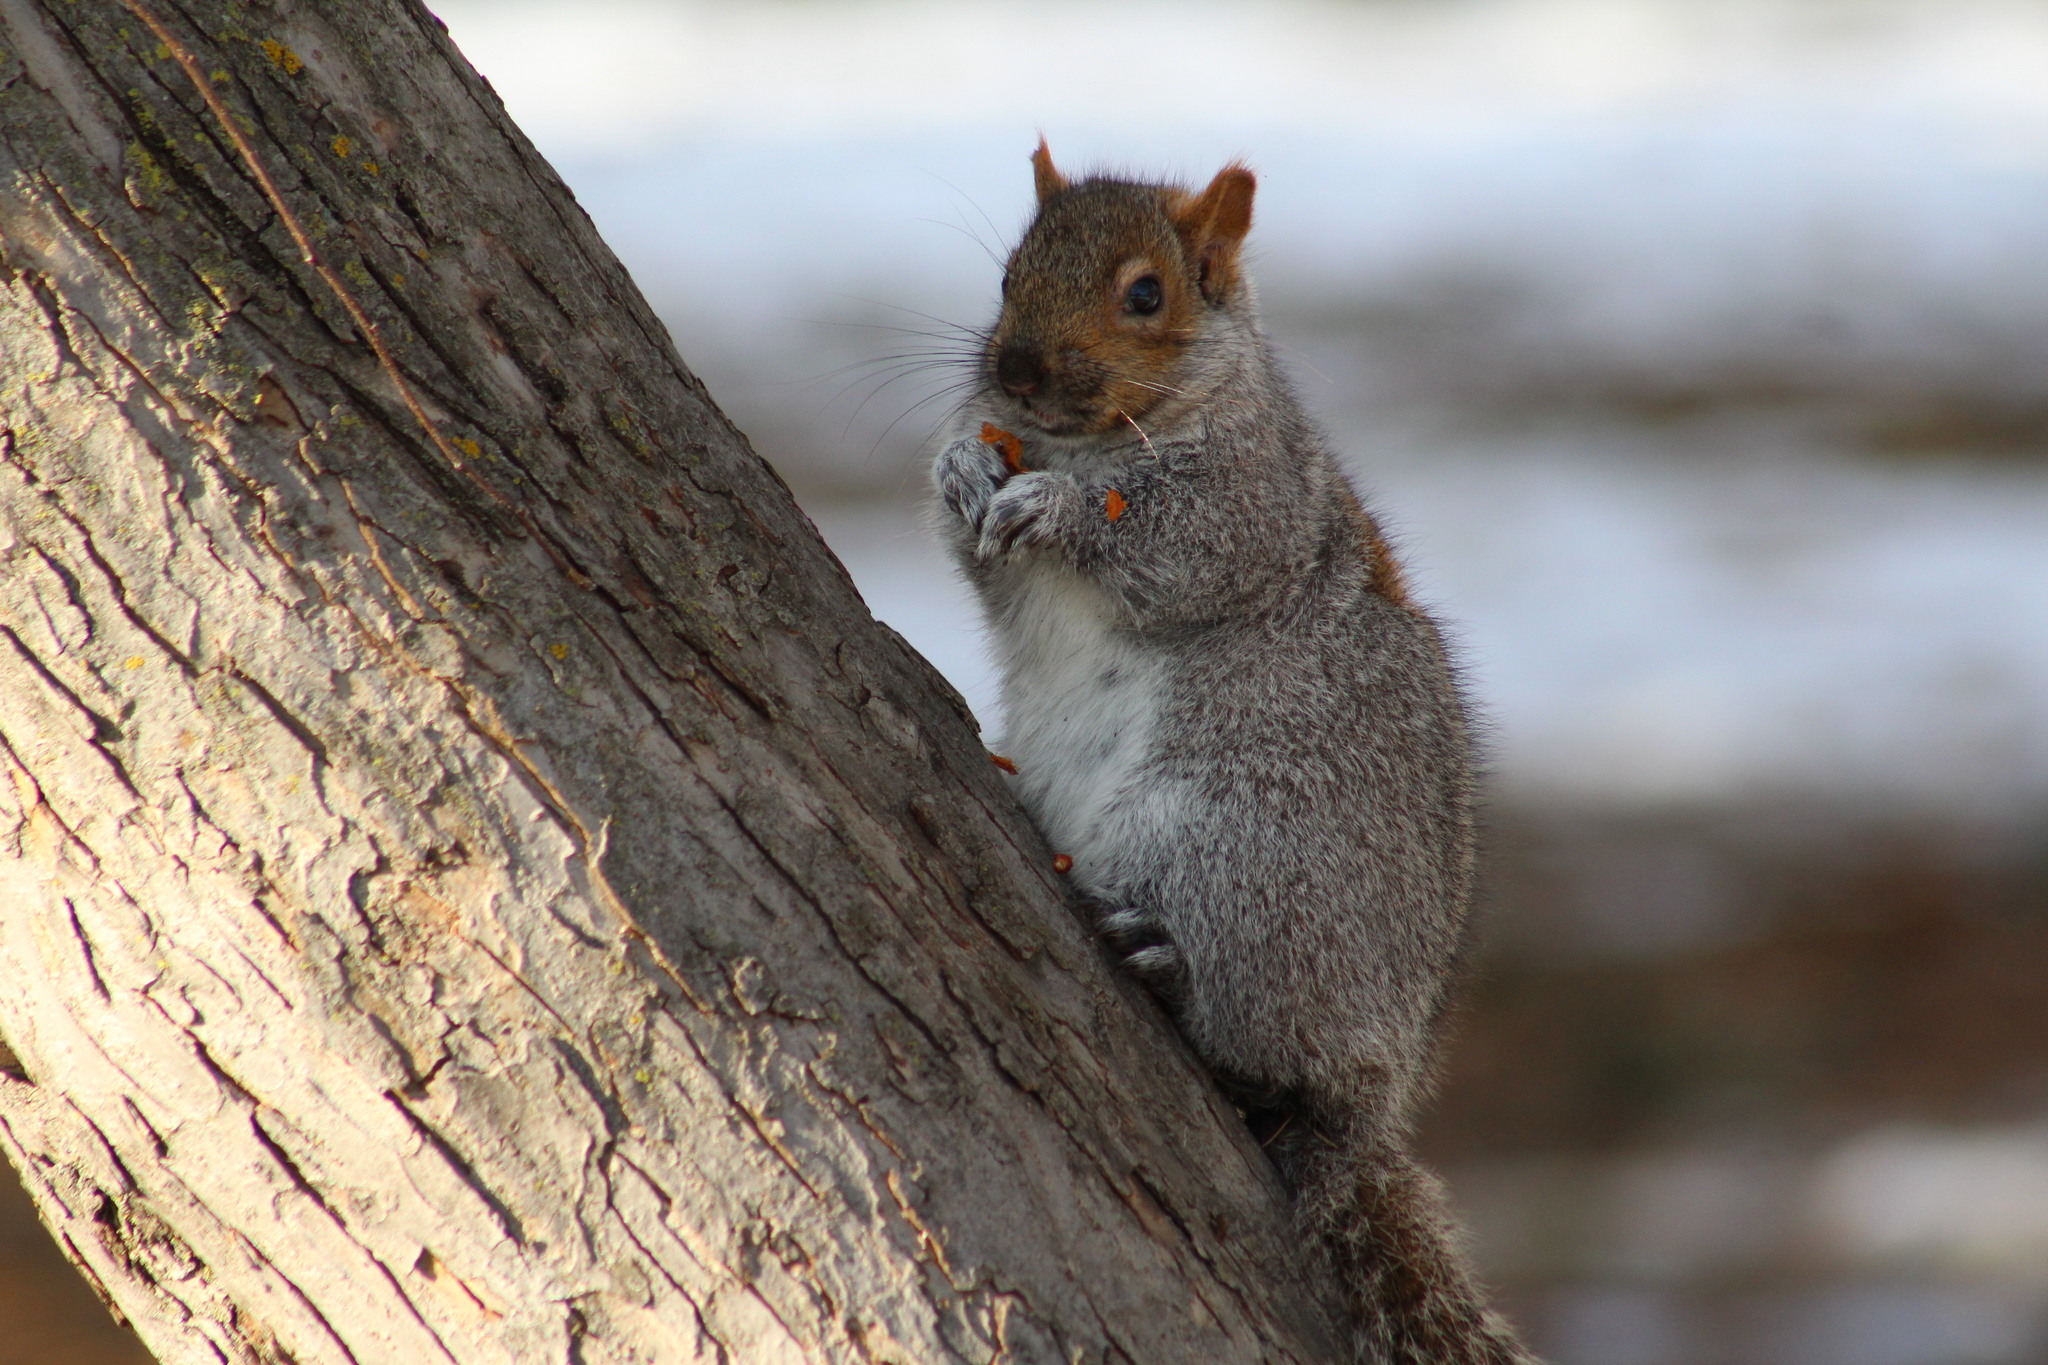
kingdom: Animalia
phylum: Chordata
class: Mammalia
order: Rodentia
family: Sciuridae
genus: Sciurus
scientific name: Sciurus carolinensis
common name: Eastern gray squirrel
